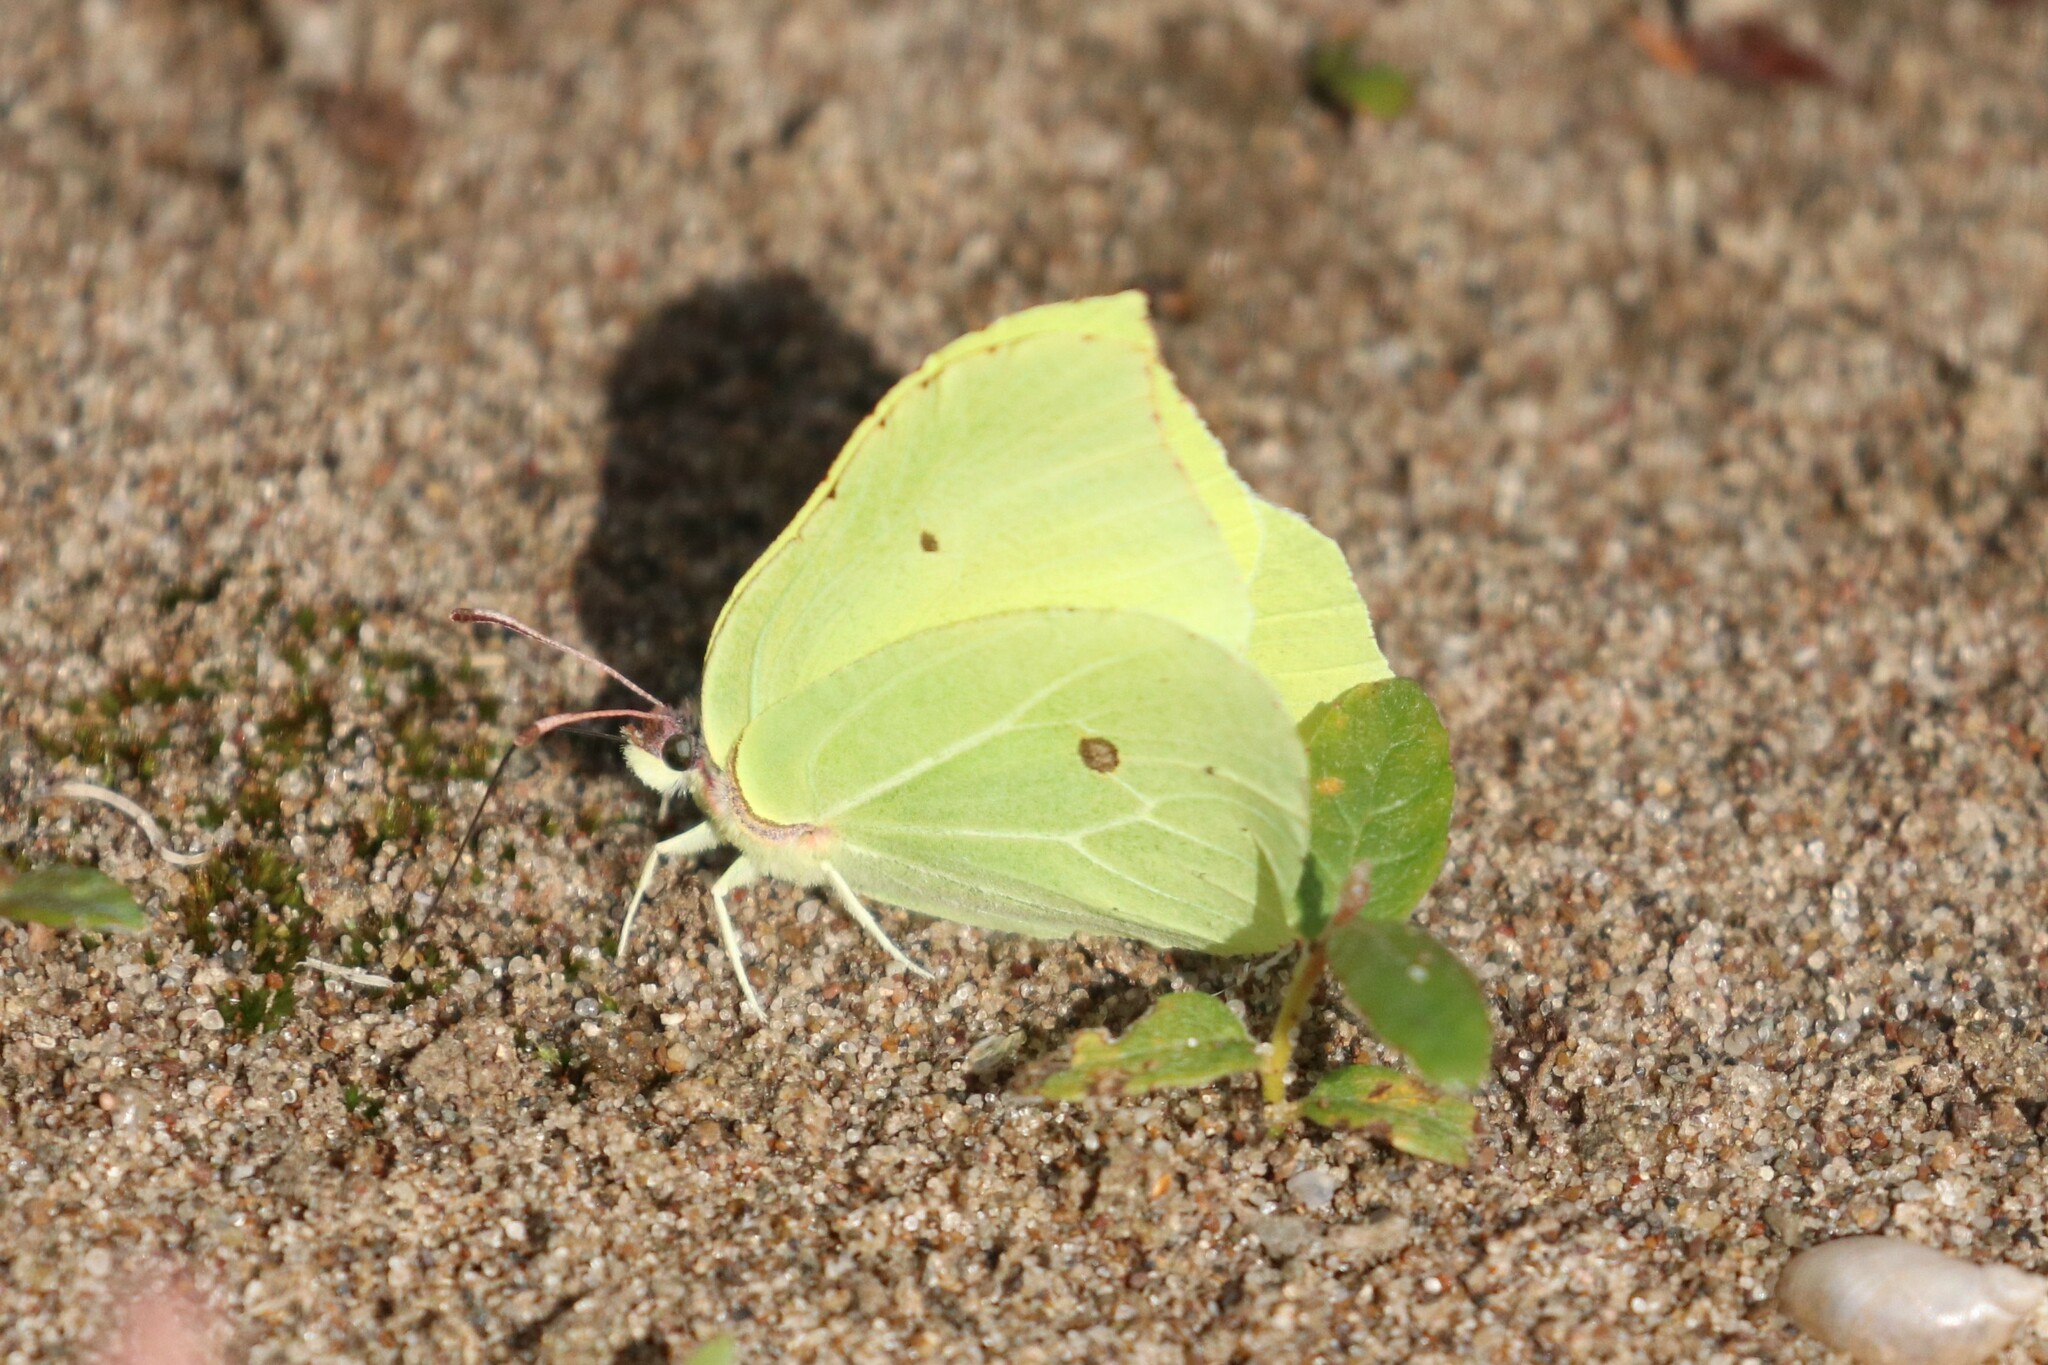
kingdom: Animalia
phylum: Arthropoda
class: Insecta
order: Lepidoptera
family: Pieridae
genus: Gonepteryx
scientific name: Gonepteryx rhamni
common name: Brimstone
